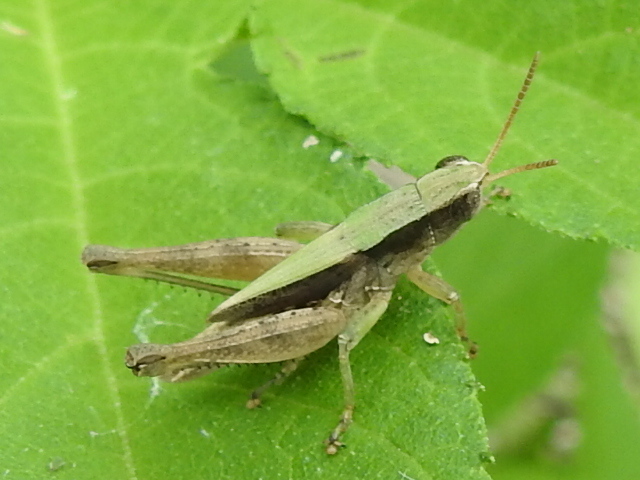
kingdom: Animalia
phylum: Arthropoda
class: Insecta
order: Orthoptera
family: Acrididae
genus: Dichromorpha
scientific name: Dichromorpha viridis
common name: Short-winged green grasshopper
